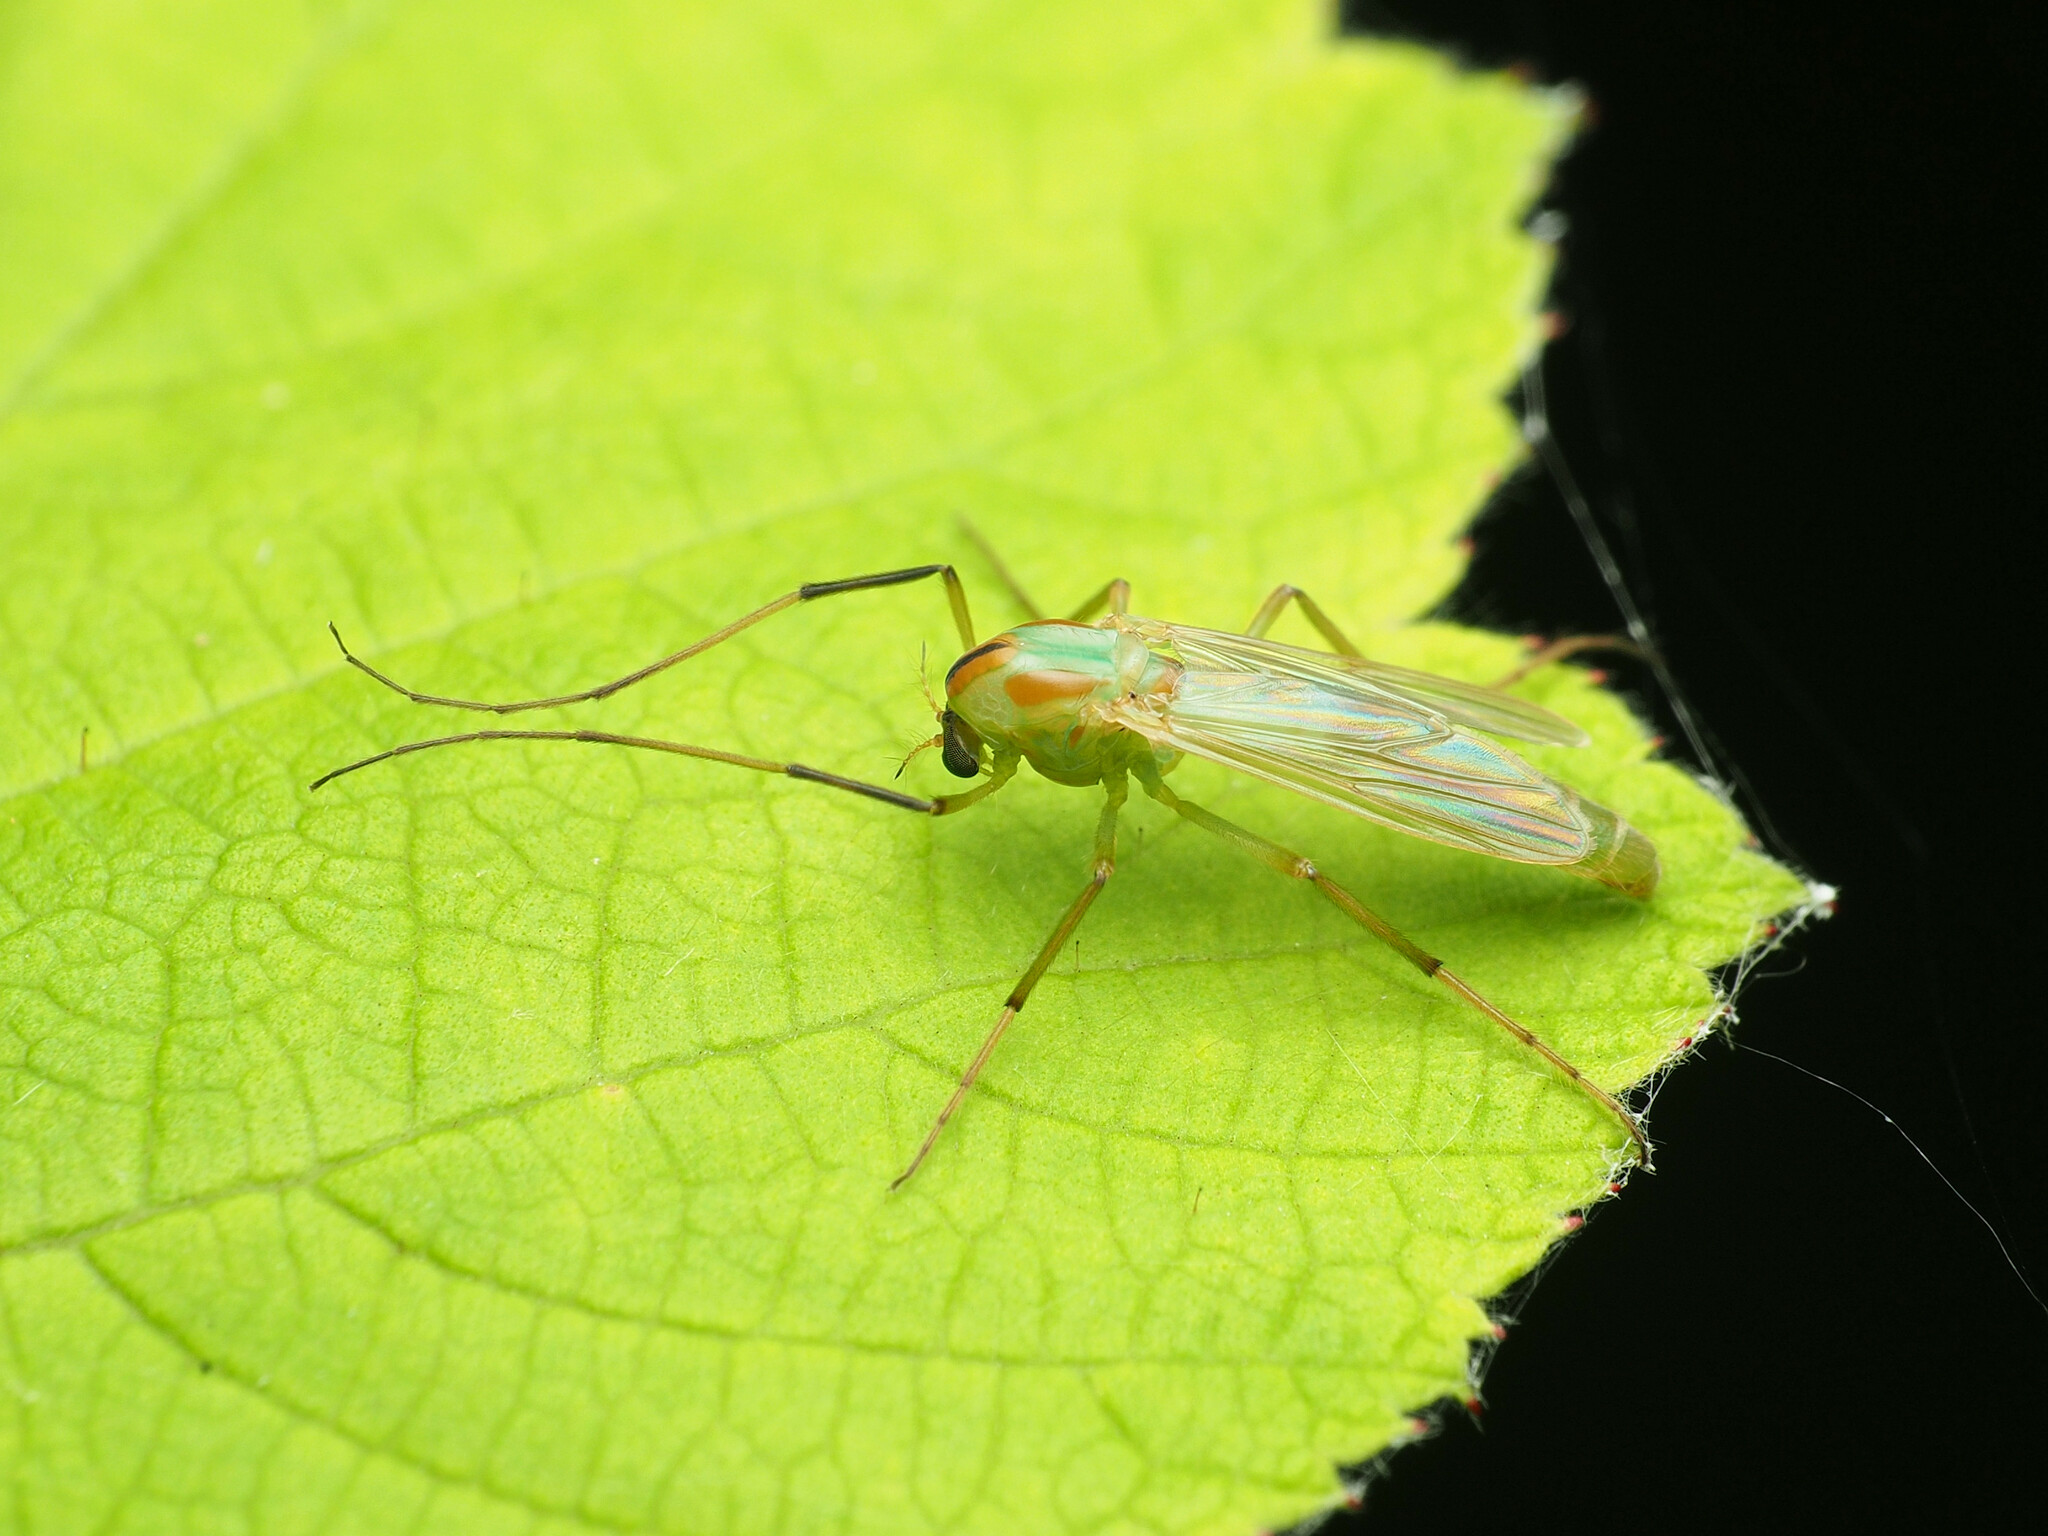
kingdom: Animalia
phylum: Arthropoda
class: Insecta
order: Diptera
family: Chironomidae
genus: Axarus
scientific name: Axarus
